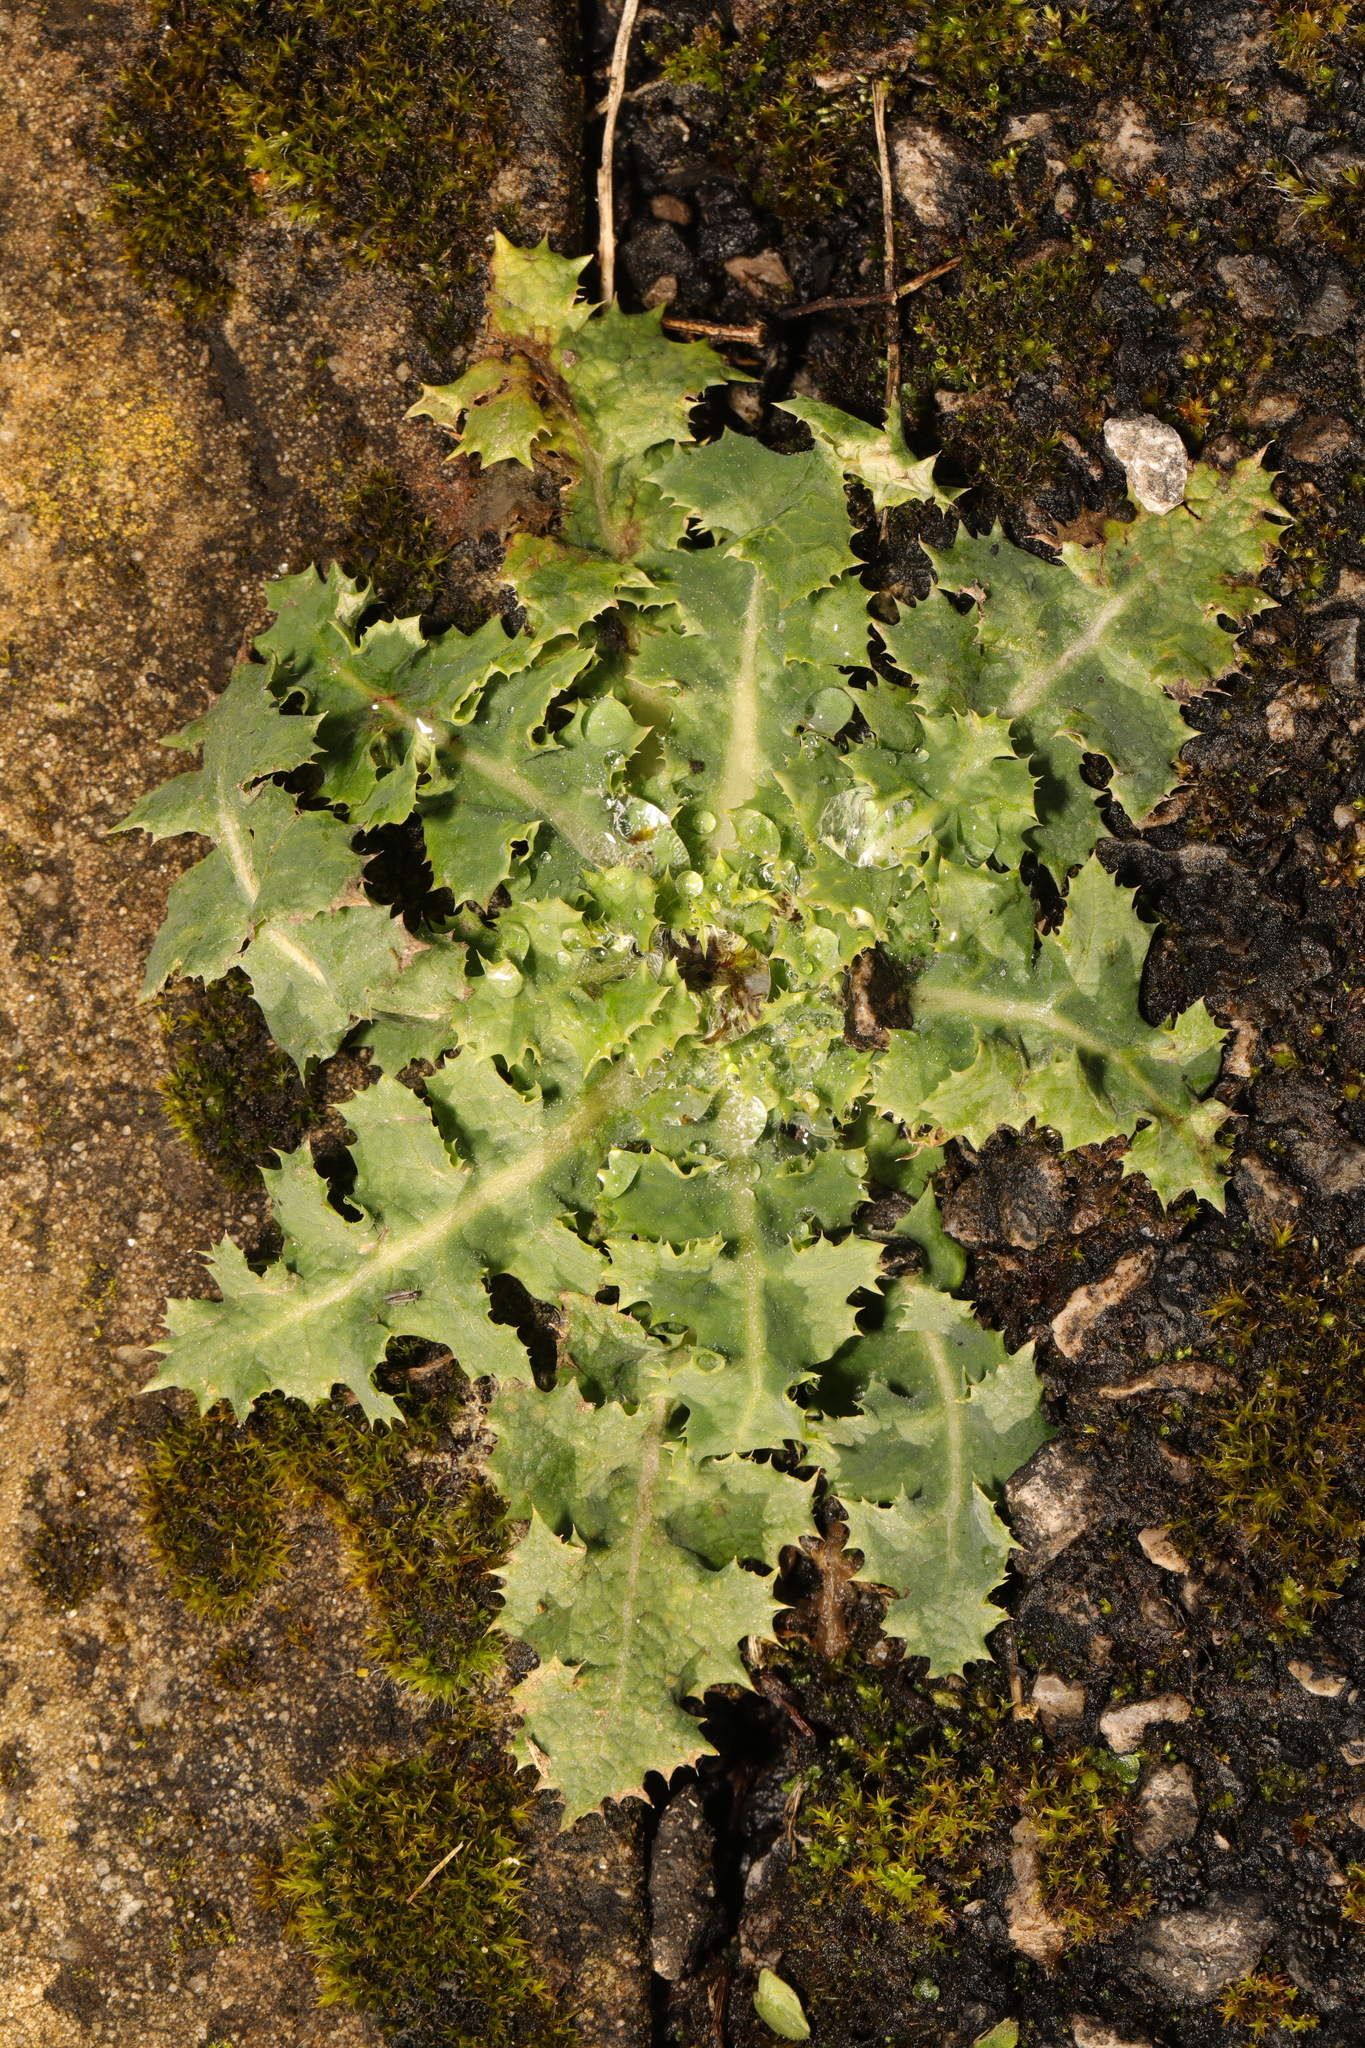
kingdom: Plantae
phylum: Tracheophyta
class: Magnoliopsida
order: Asterales
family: Asteraceae
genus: Sonchus
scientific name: Sonchus asper
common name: Prickly sow-thistle
